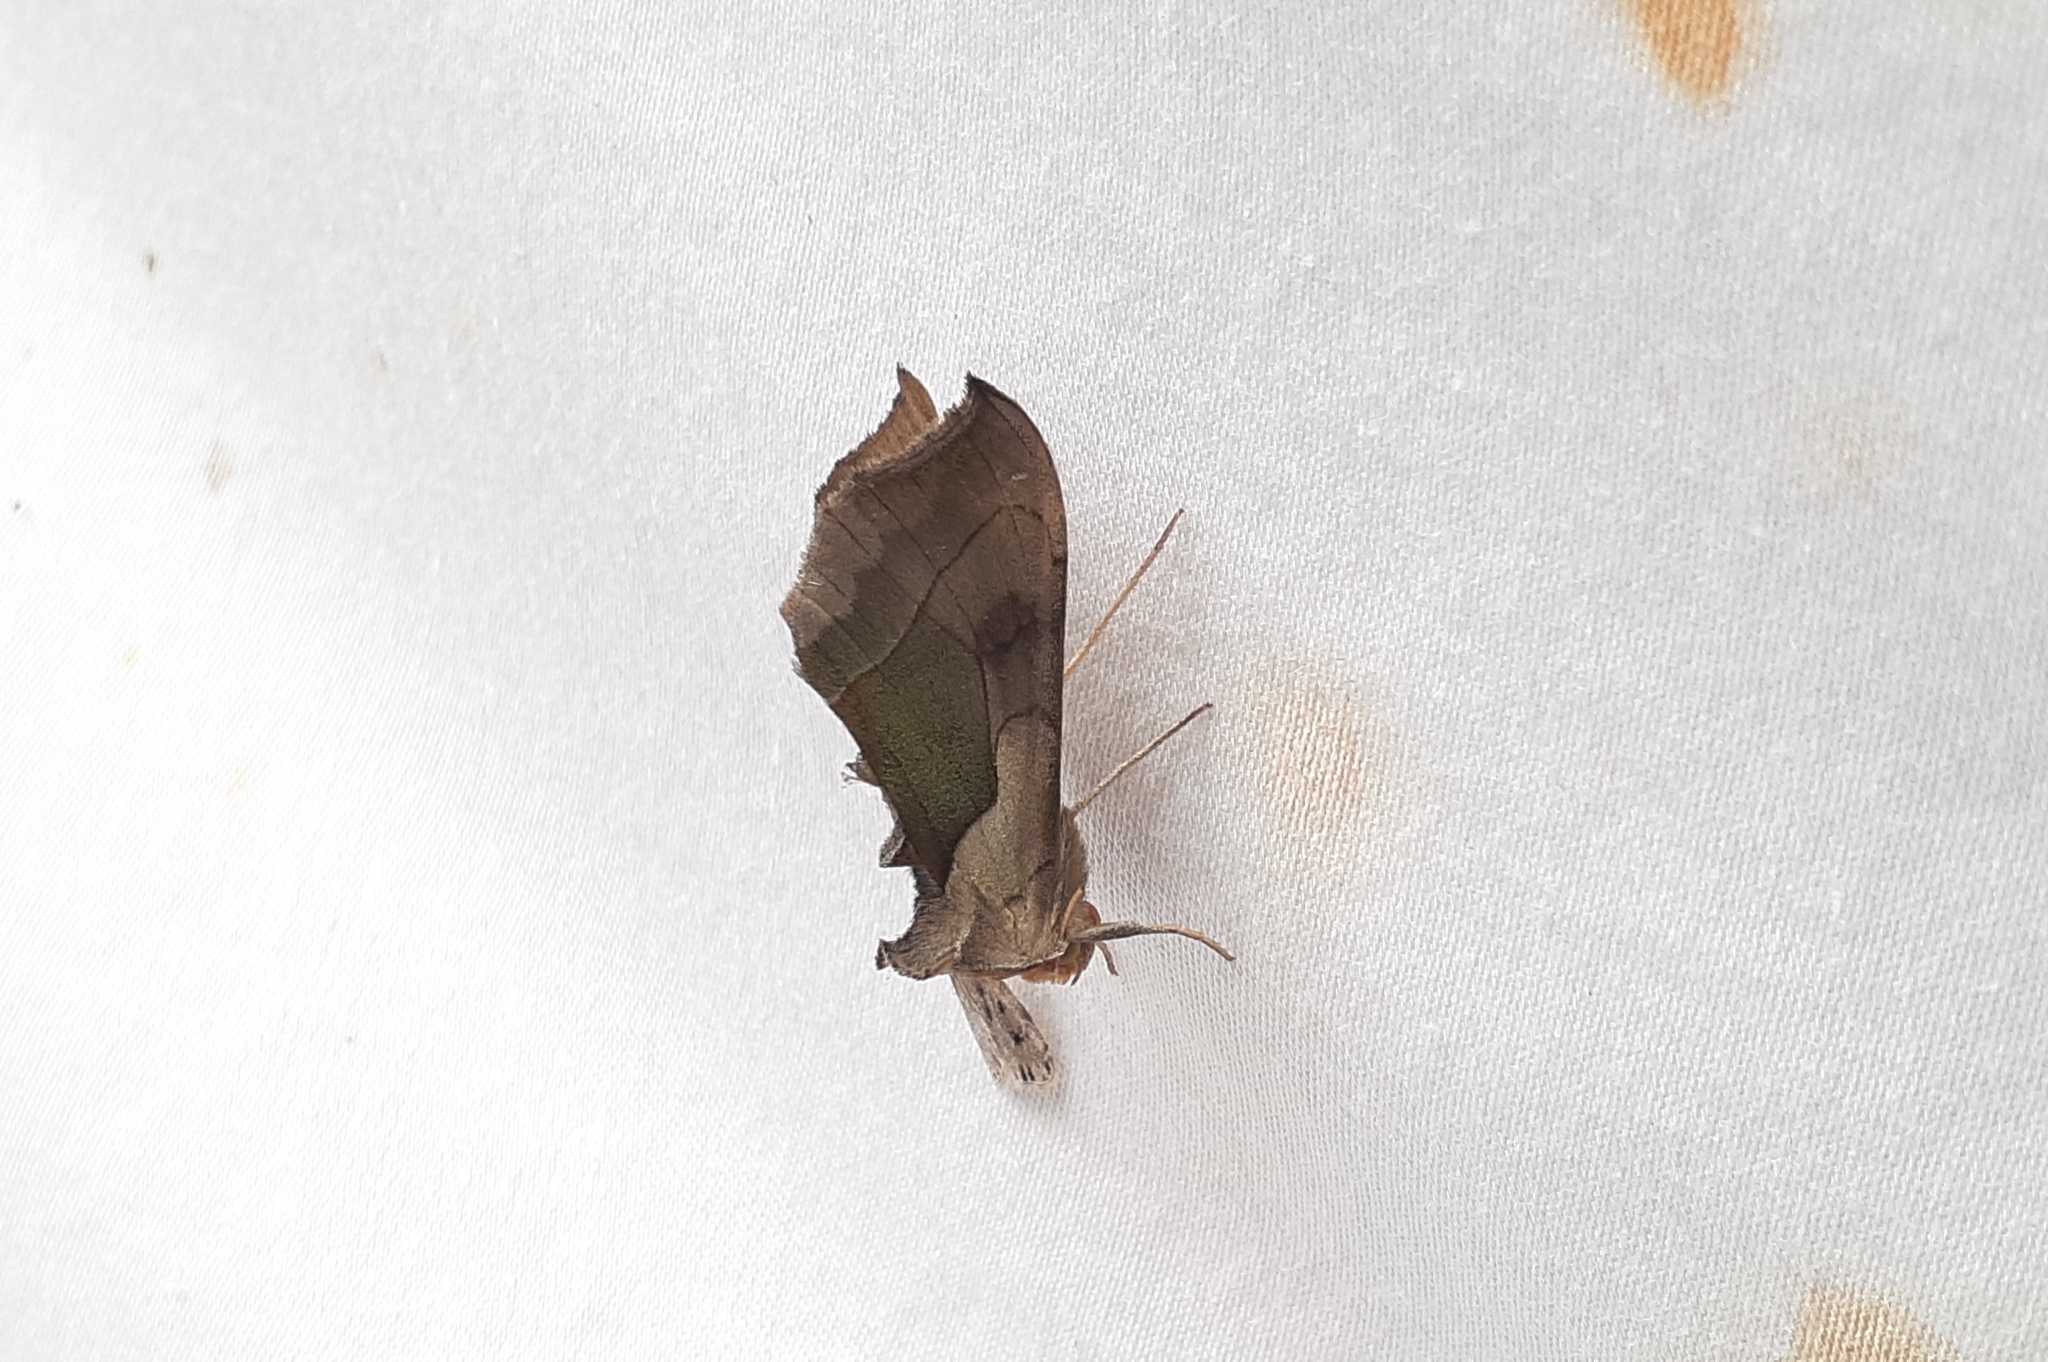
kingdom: Animalia
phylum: Arthropoda
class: Insecta
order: Lepidoptera
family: Noctuidae
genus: Diachrysia
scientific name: Diachrysia balluca
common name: Green-patched looper moth
